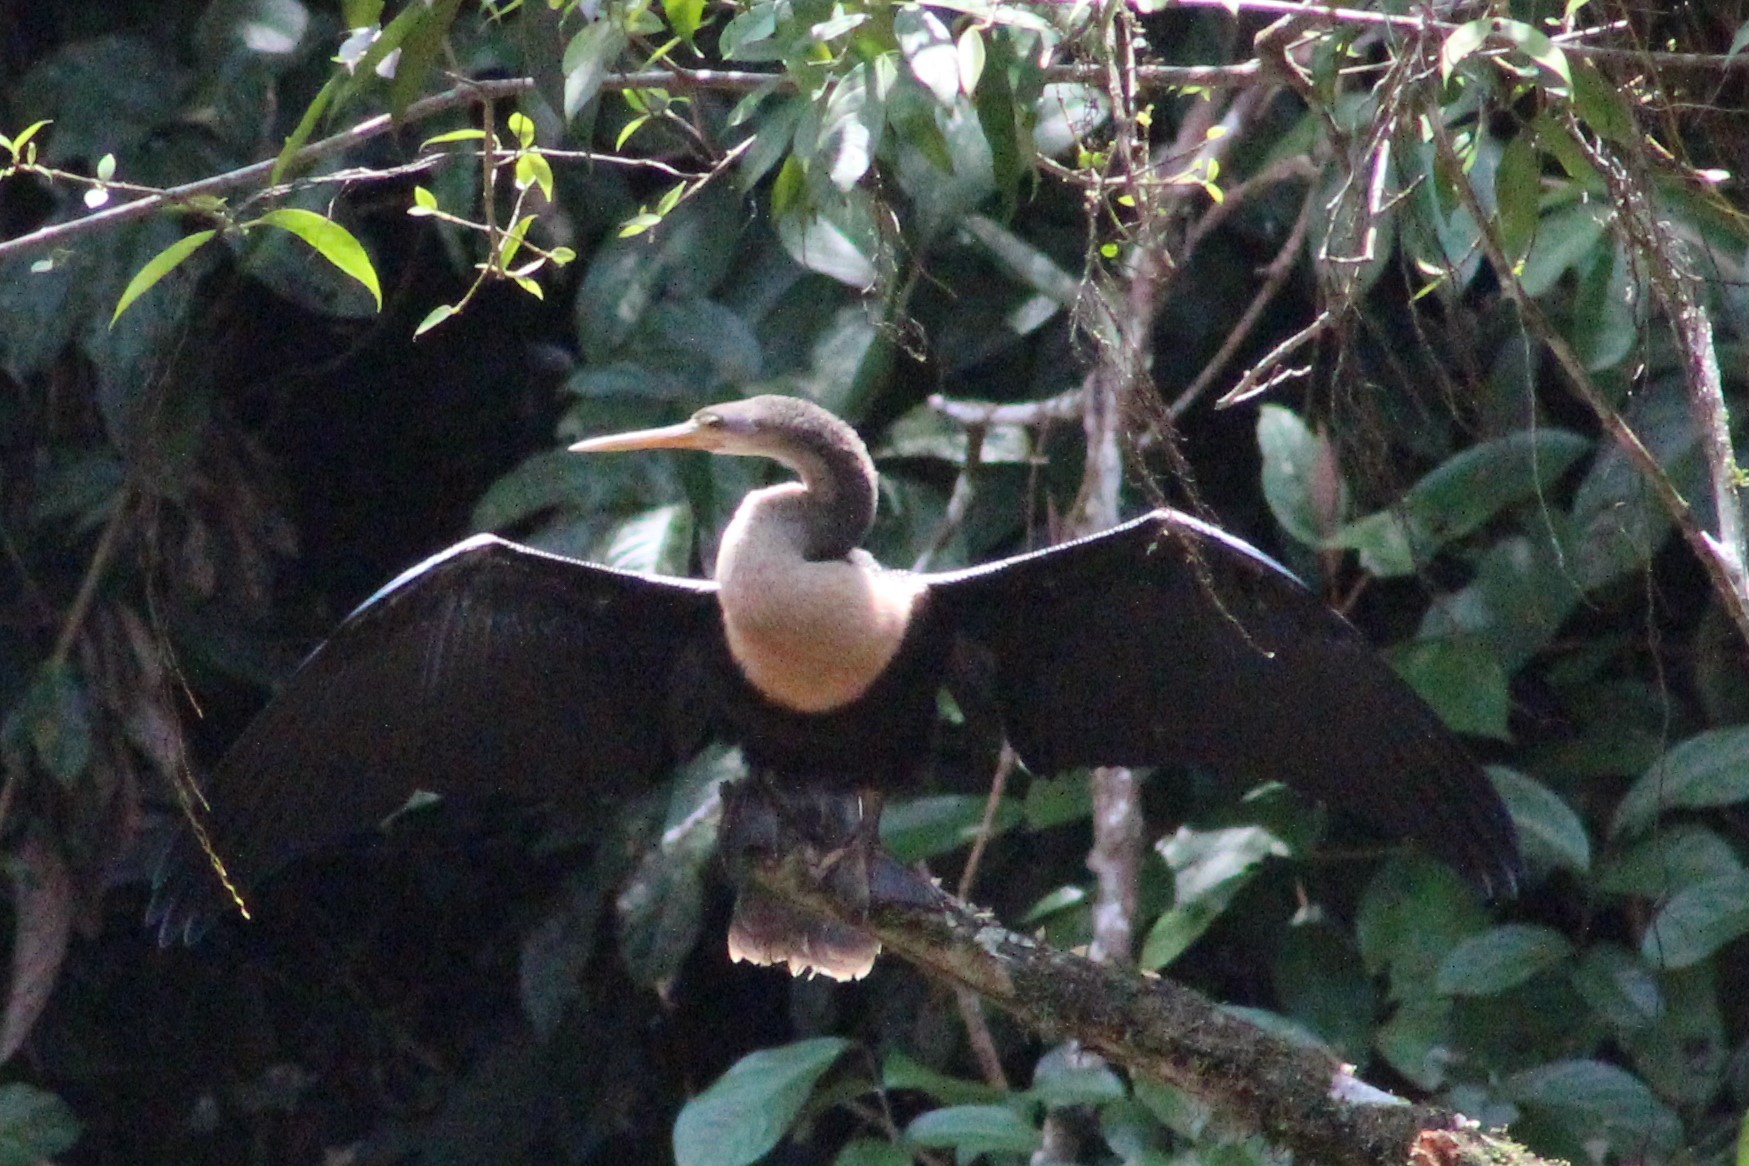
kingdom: Animalia
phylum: Chordata
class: Aves
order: Suliformes
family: Anhingidae
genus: Anhinga
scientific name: Anhinga anhinga
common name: Anhinga
